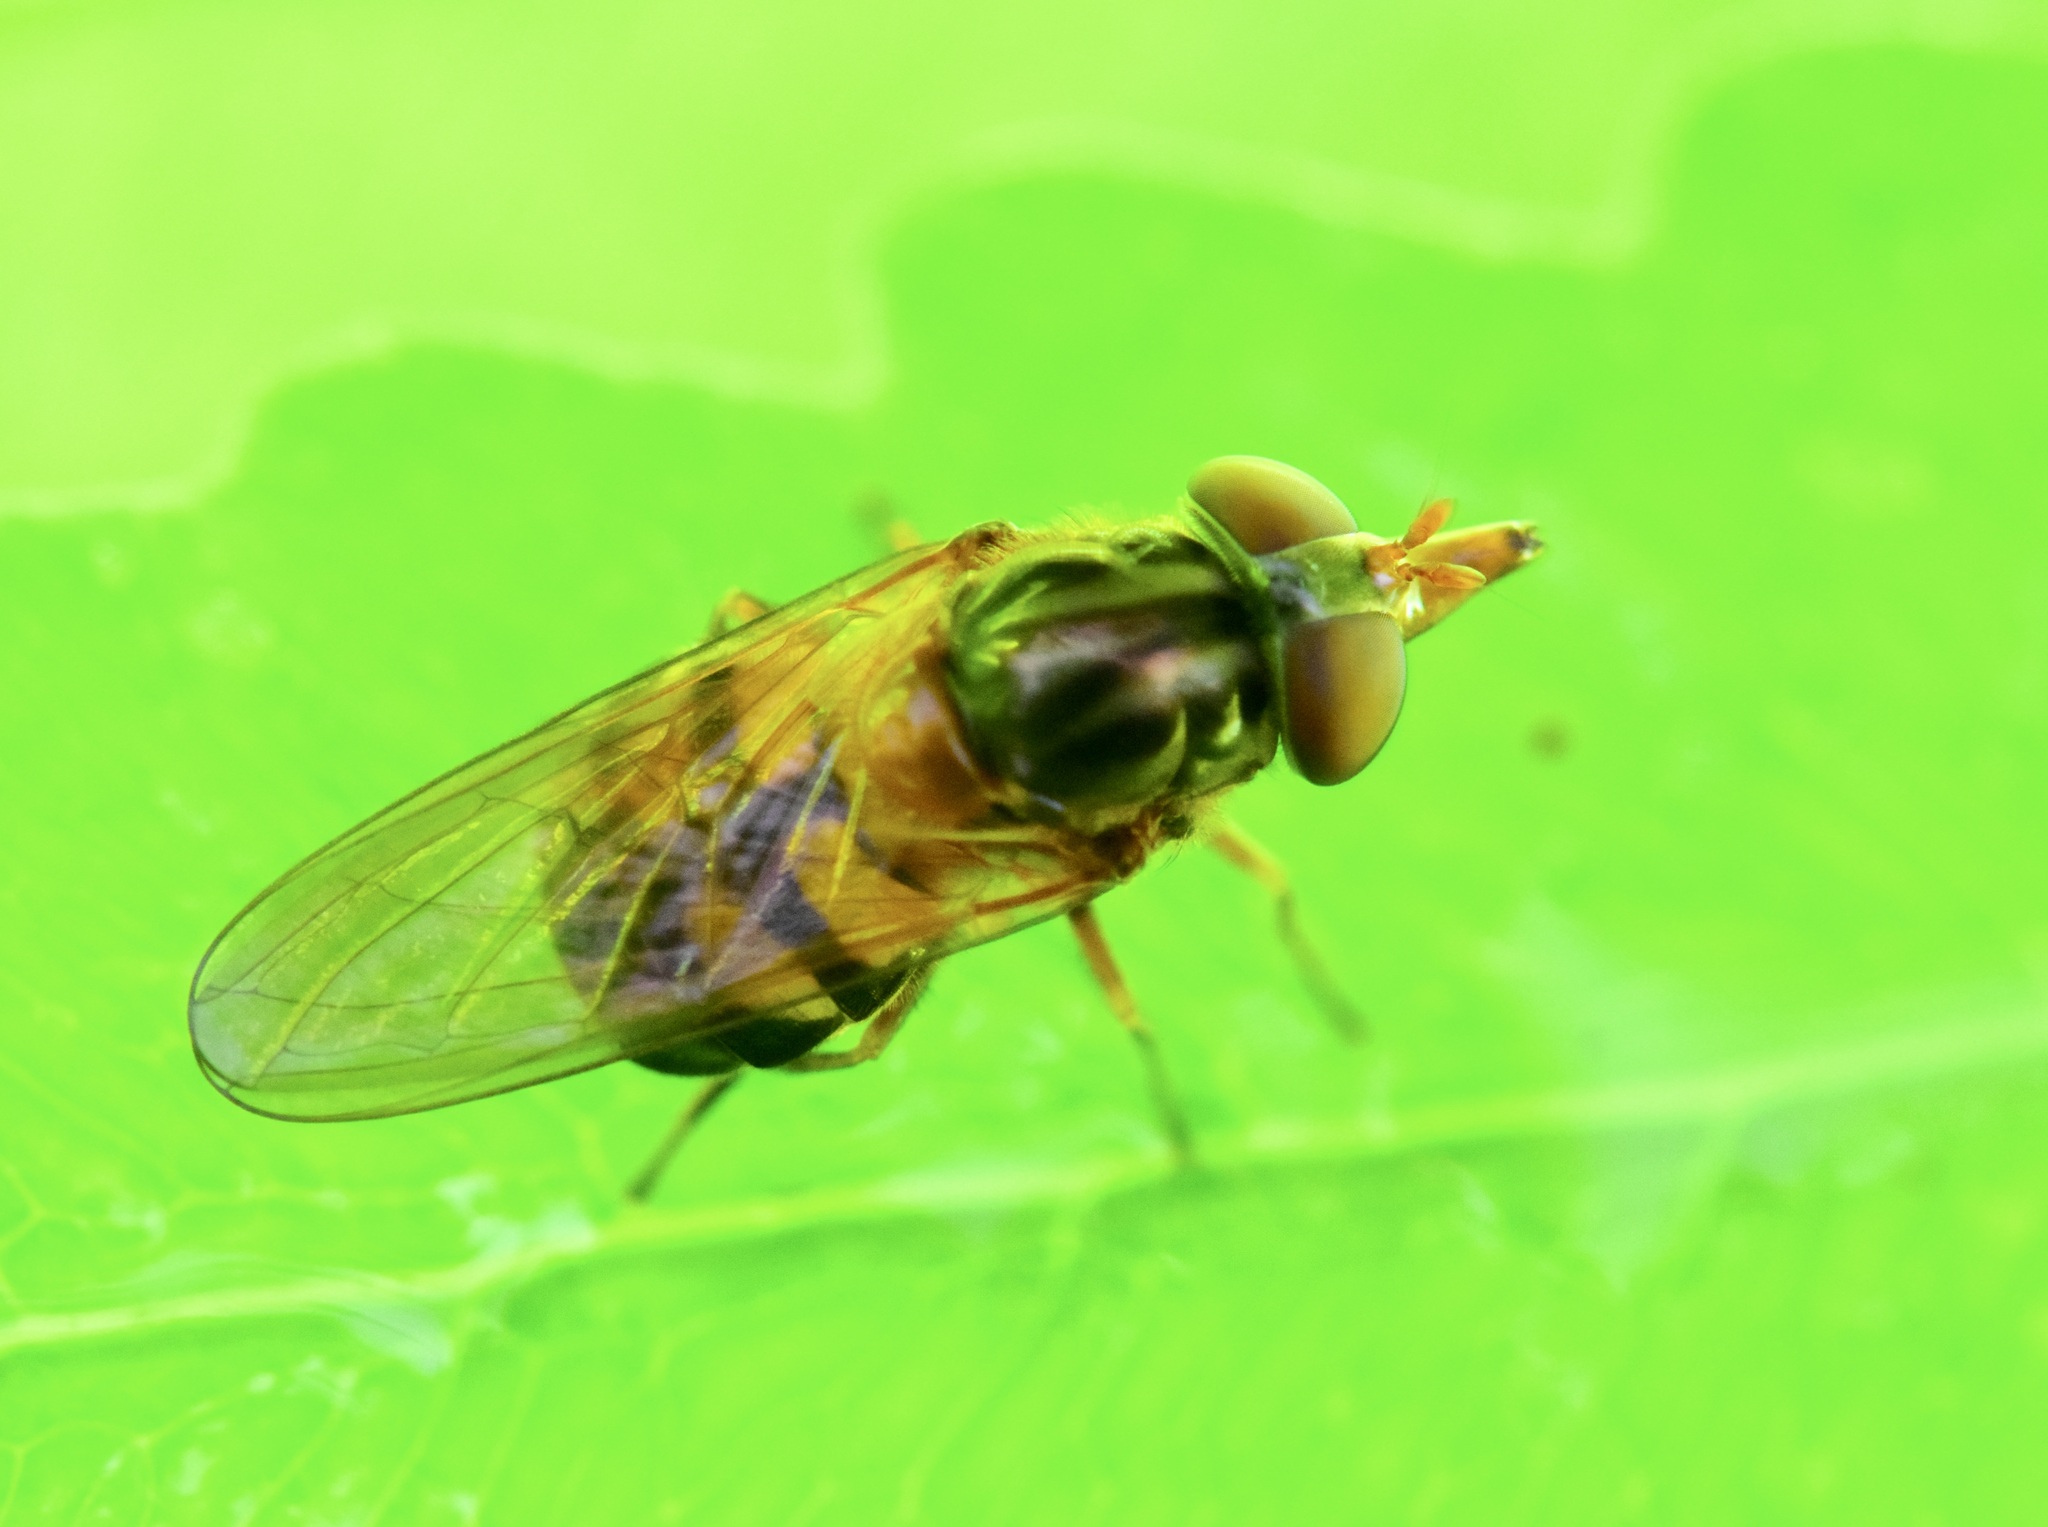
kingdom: Animalia
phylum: Arthropoda
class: Insecta
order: Diptera
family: Syrphidae
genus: Rhingia
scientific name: Rhingia nasica
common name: American snout fly
